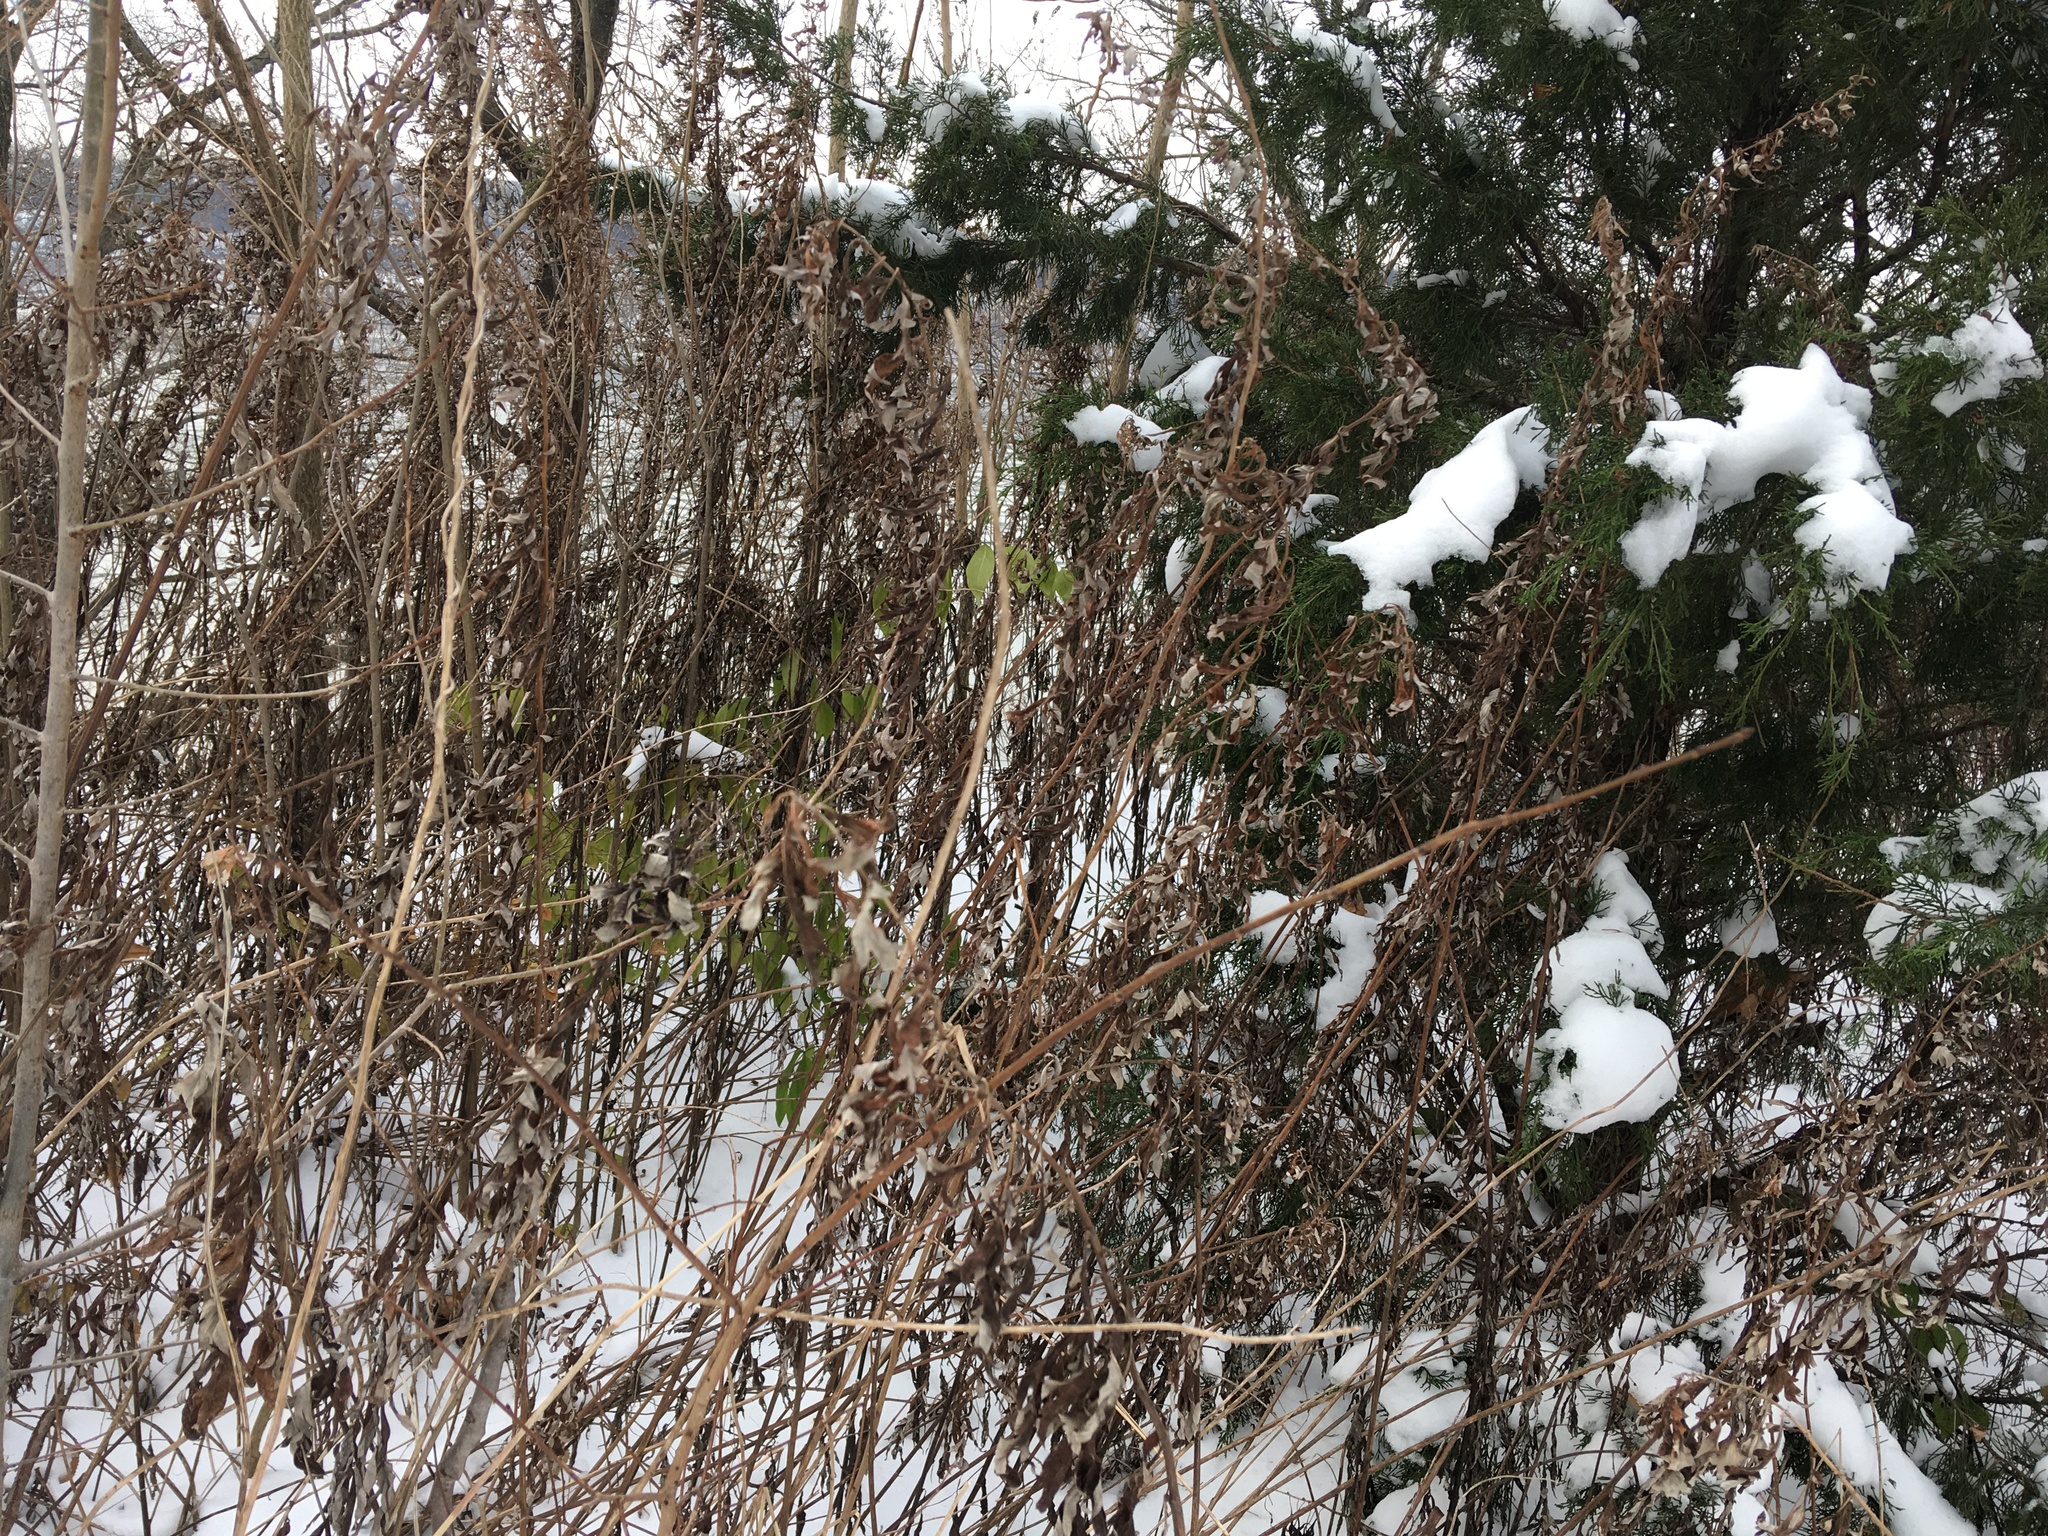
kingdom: Plantae
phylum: Tracheophyta
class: Magnoliopsida
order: Asterales
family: Asteraceae
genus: Artemisia
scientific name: Artemisia vulgaris
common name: Mugwort
